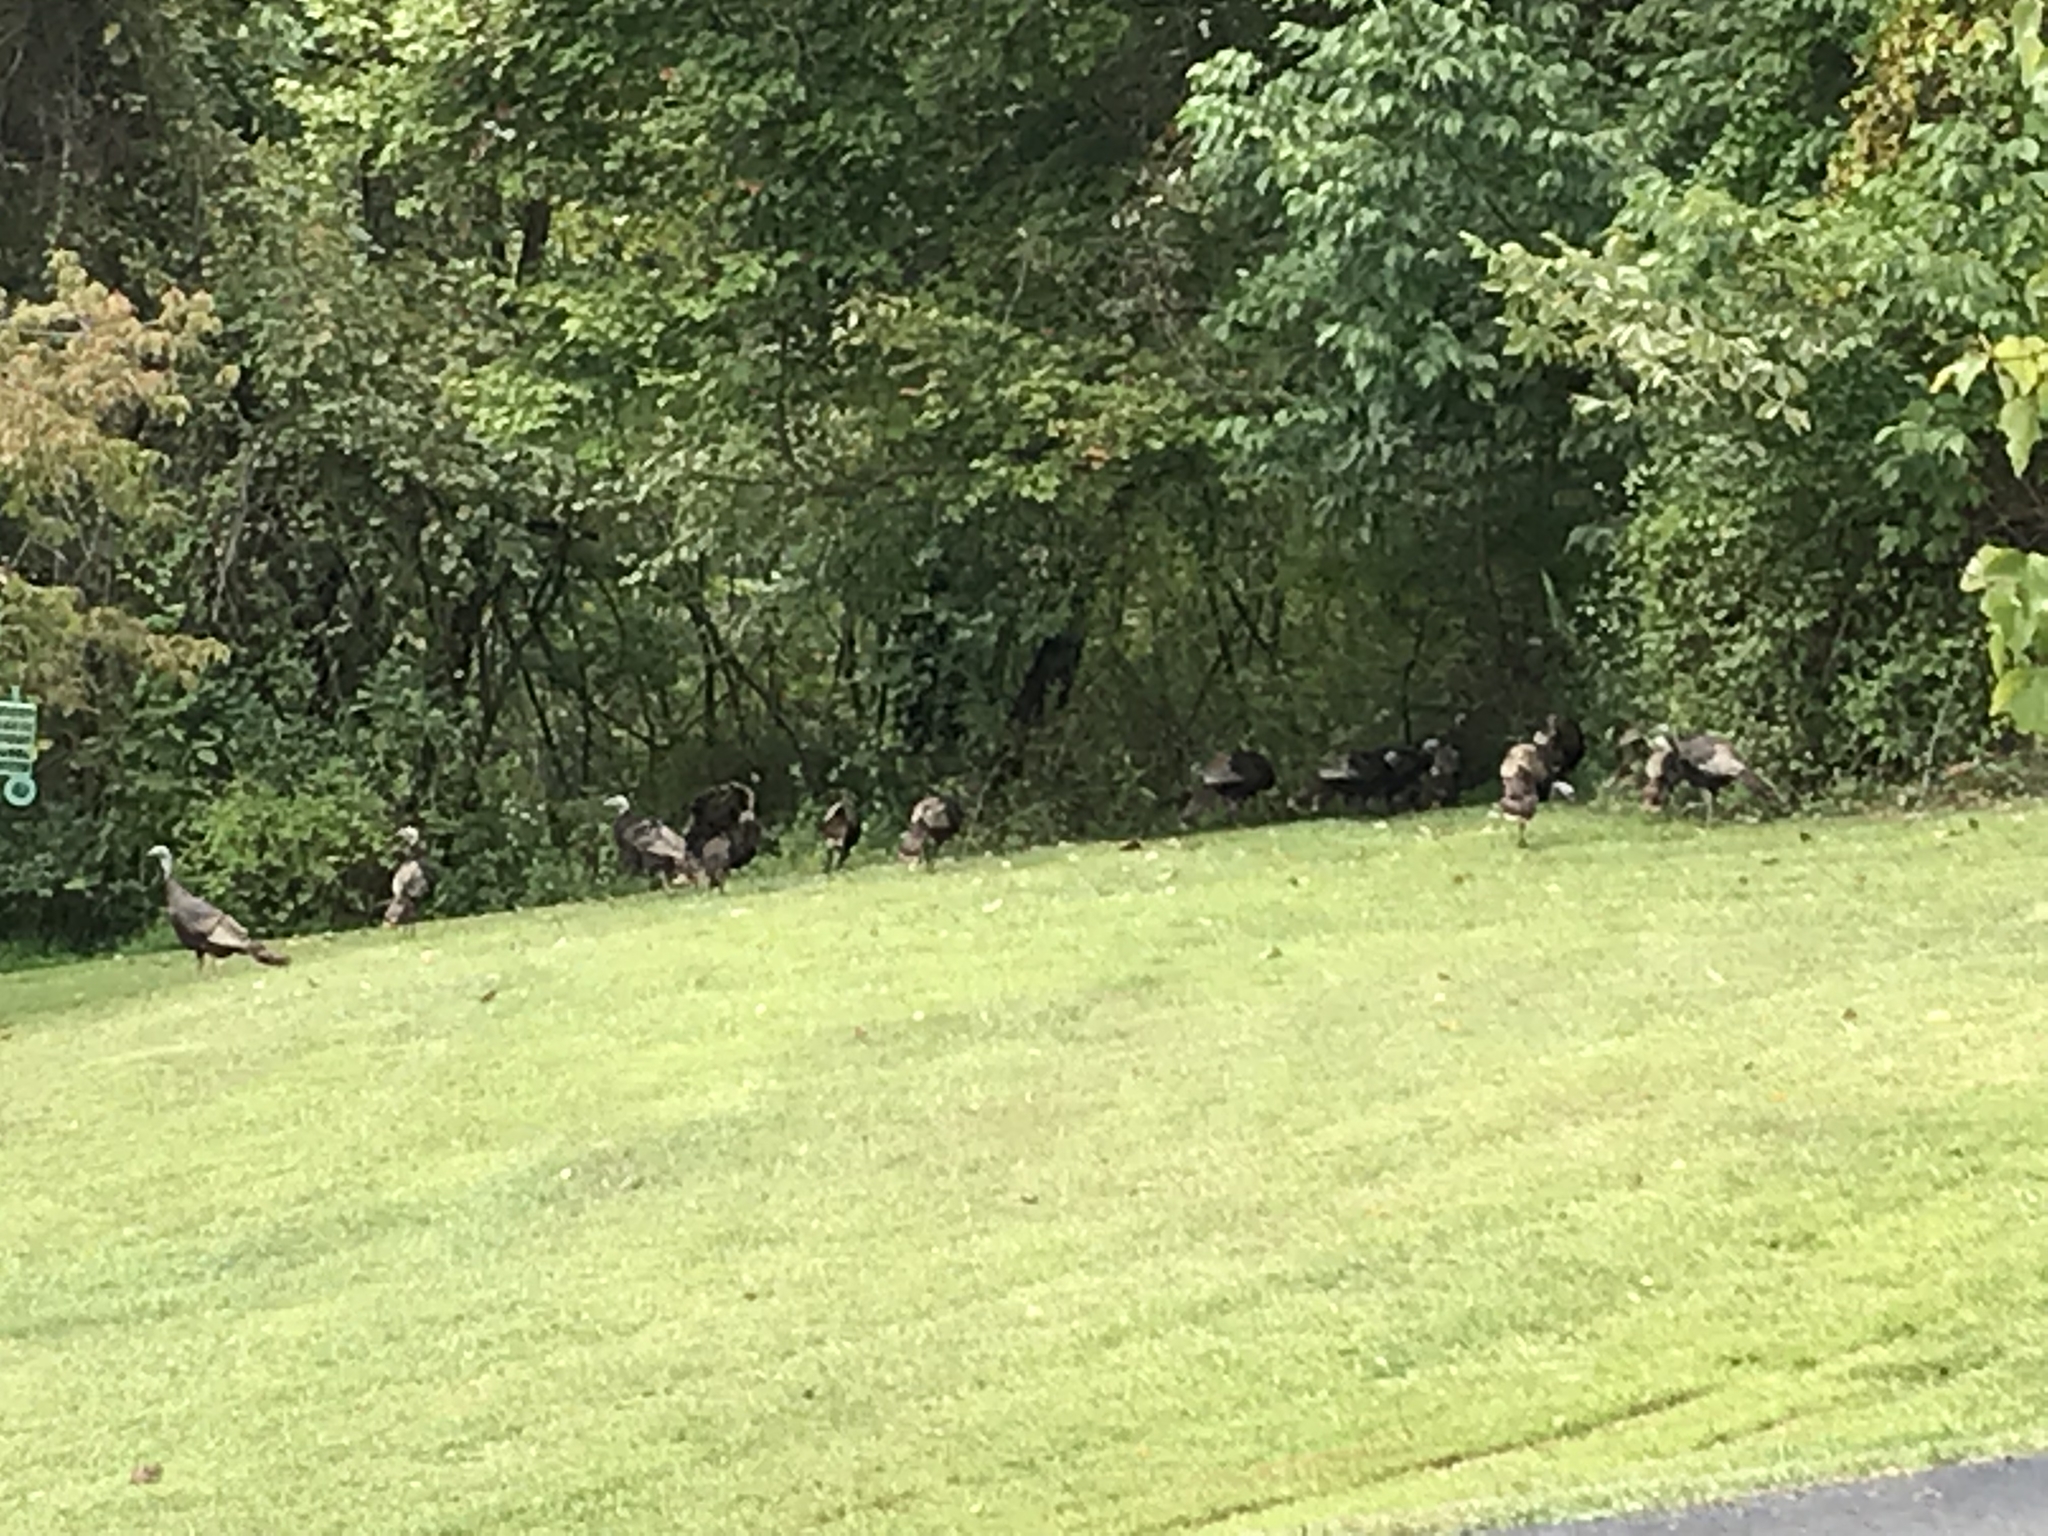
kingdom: Animalia
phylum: Chordata
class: Aves
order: Galliformes
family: Phasianidae
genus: Meleagris
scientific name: Meleagris gallopavo
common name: Wild turkey
